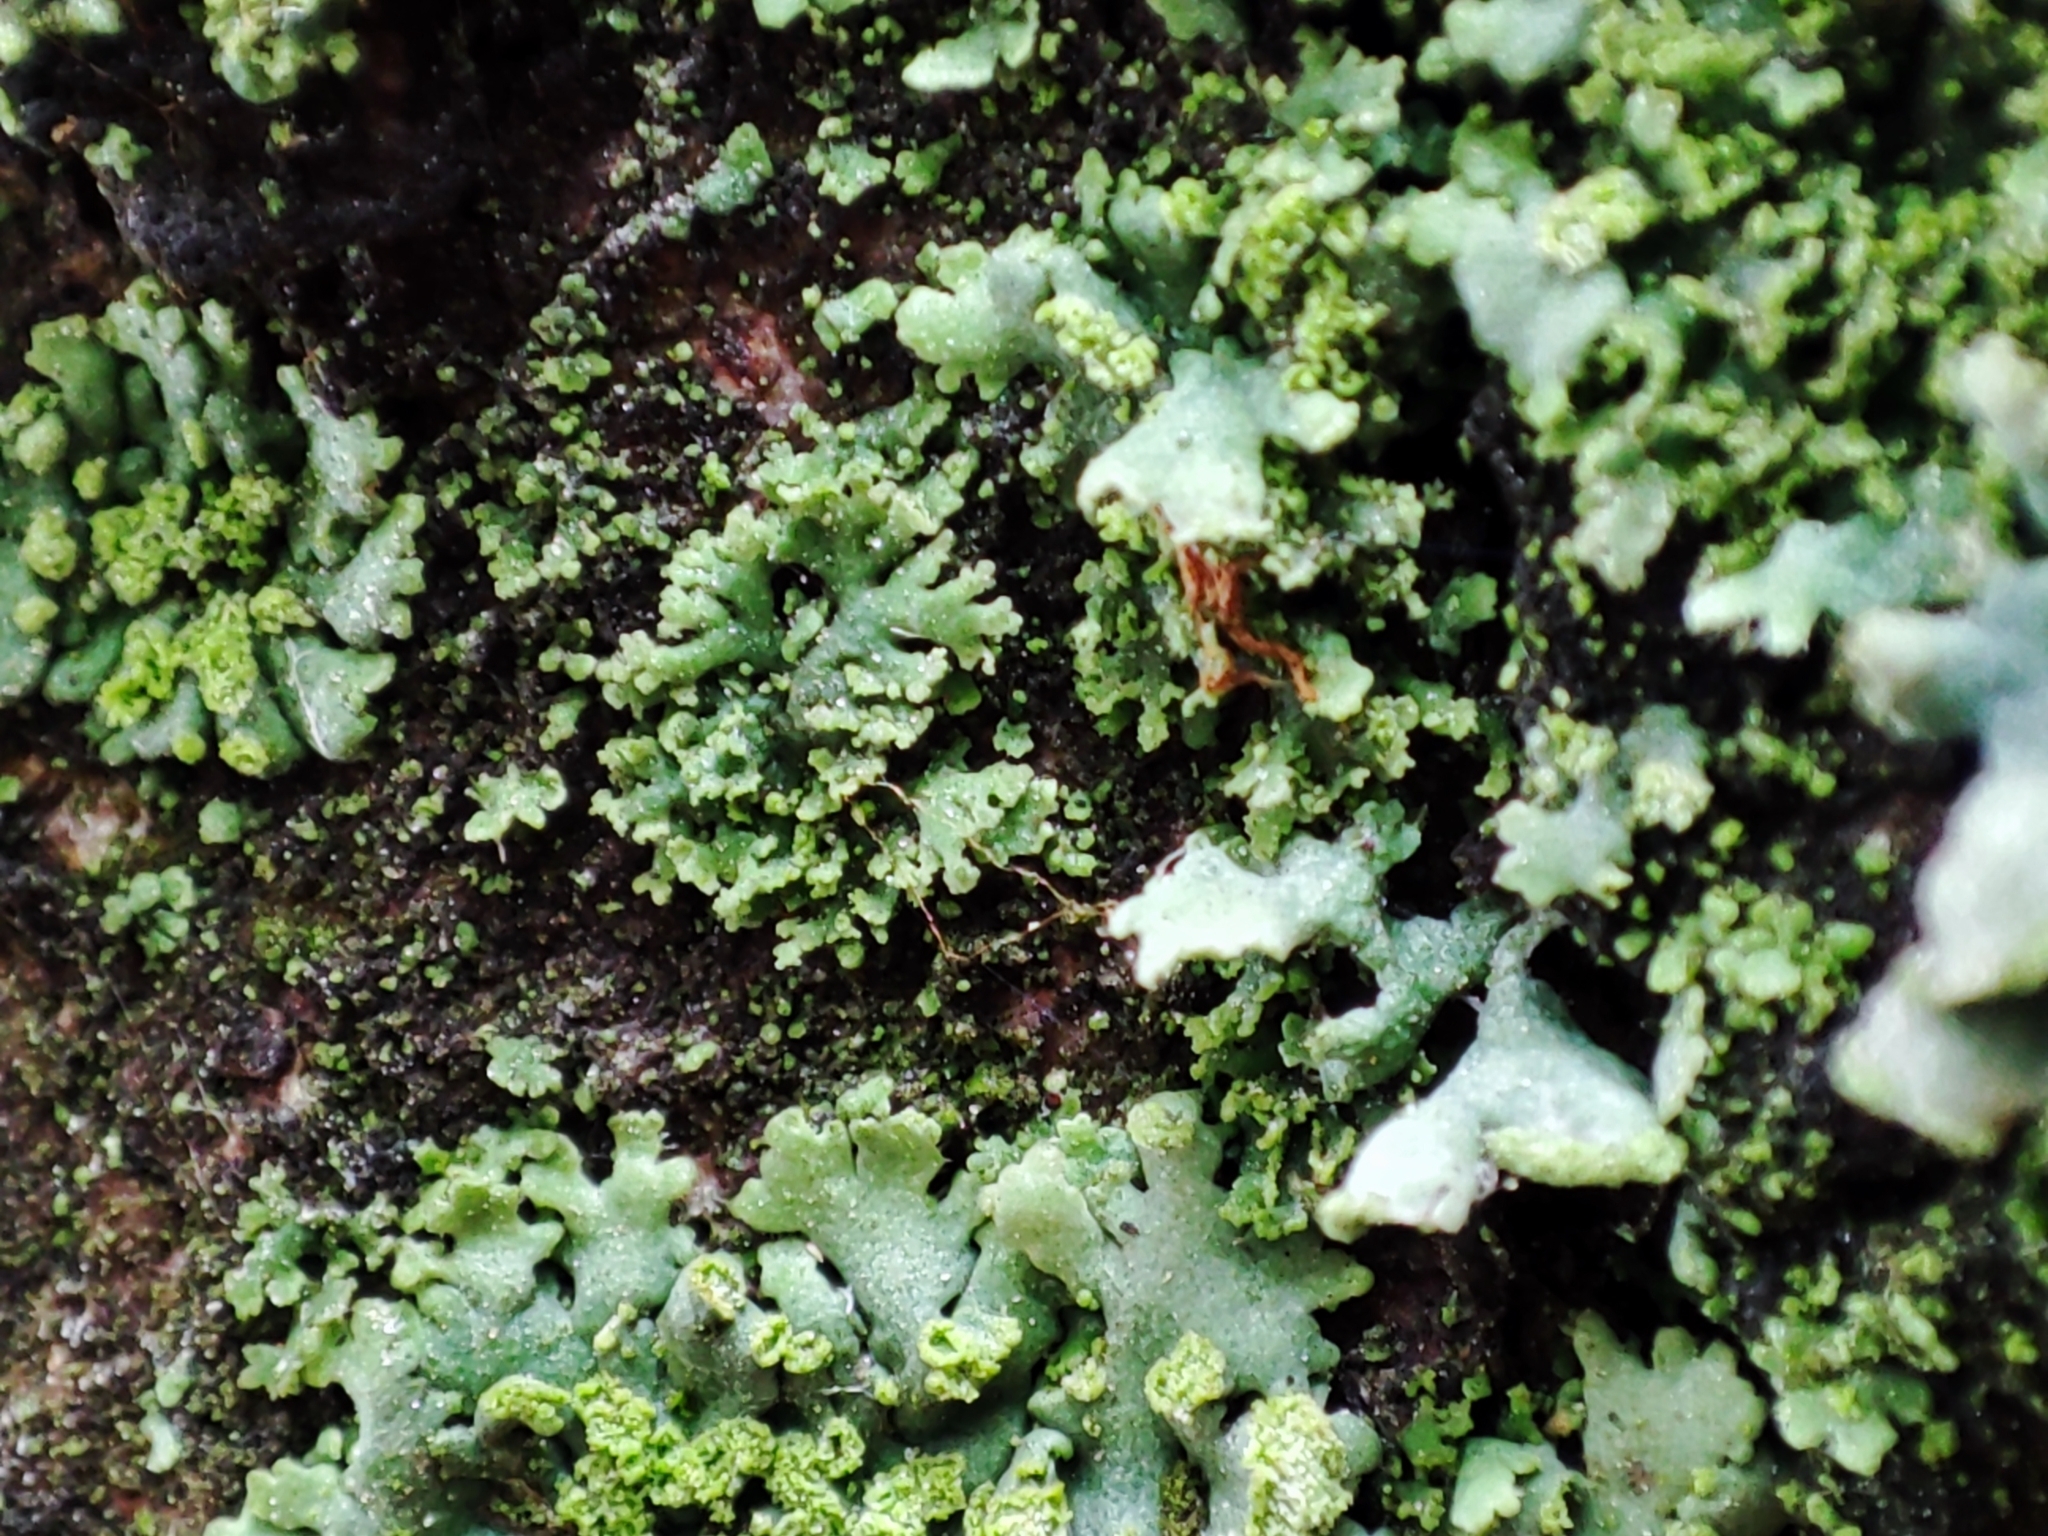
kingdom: Fungi
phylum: Ascomycota
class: Lecanoromycetes
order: Caliciales
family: Physciaceae
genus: Physciella
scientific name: Physciella nigricans
